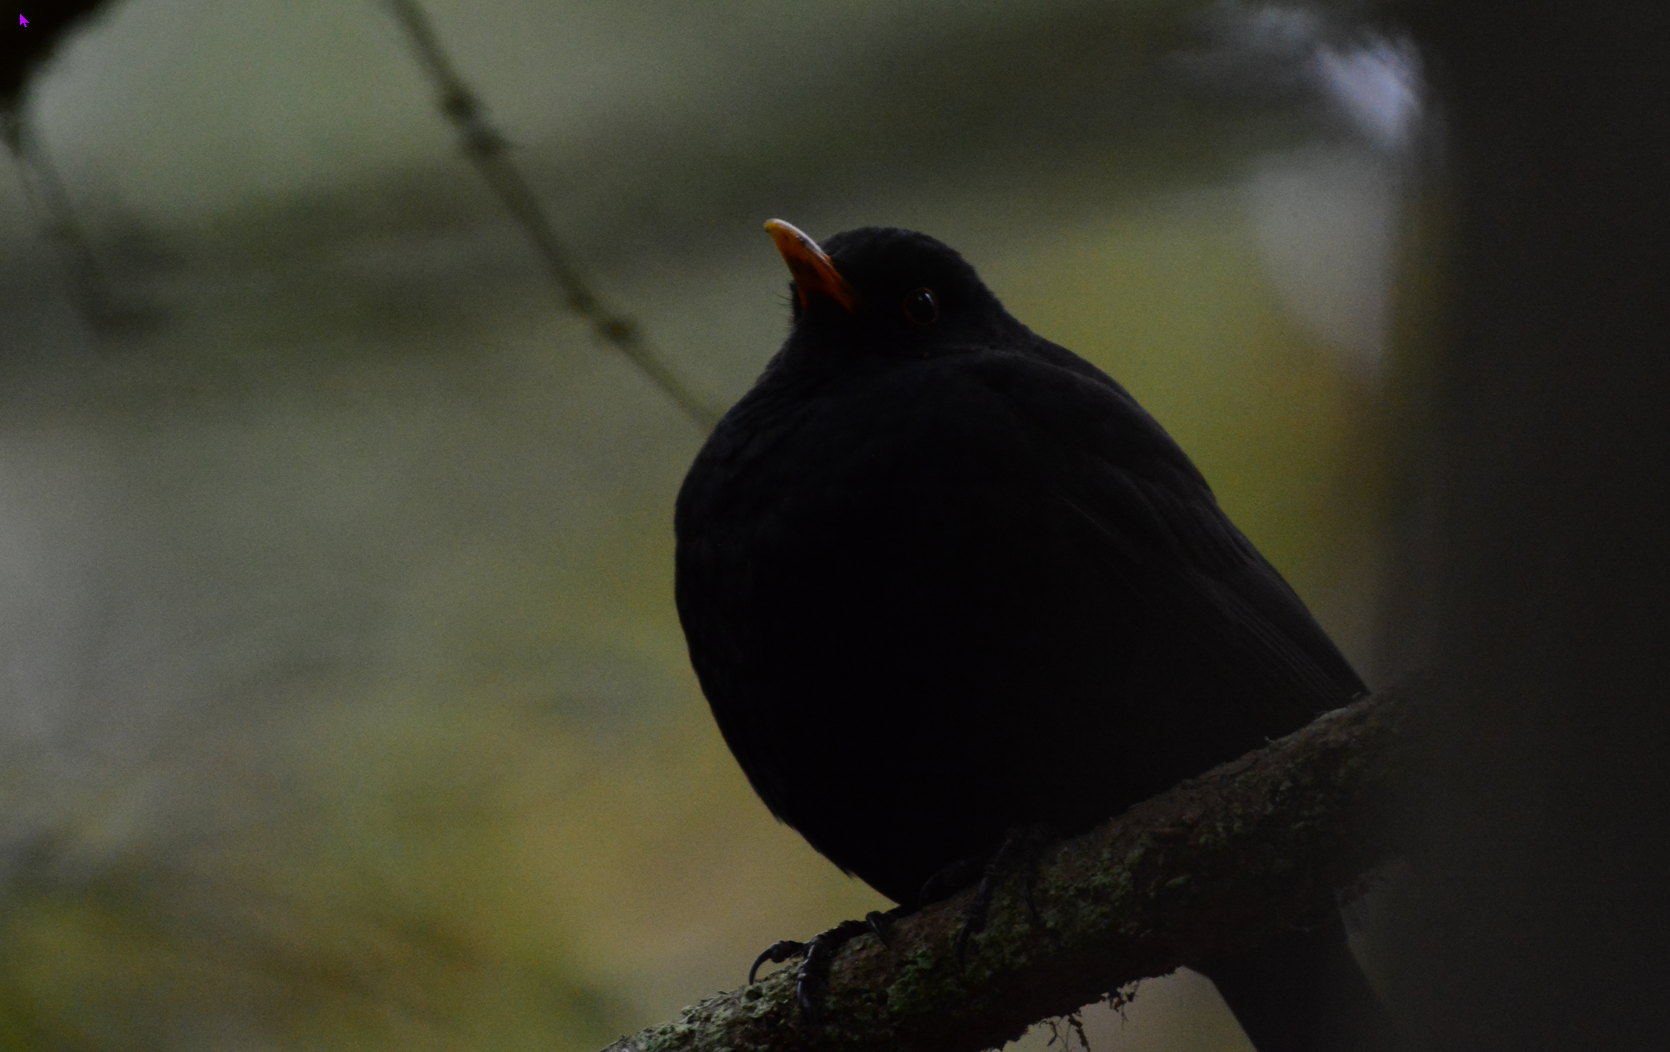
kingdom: Animalia
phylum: Chordata
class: Aves
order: Passeriformes
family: Turdidae
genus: Turdus
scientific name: Turdus merula
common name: Common blackbird
